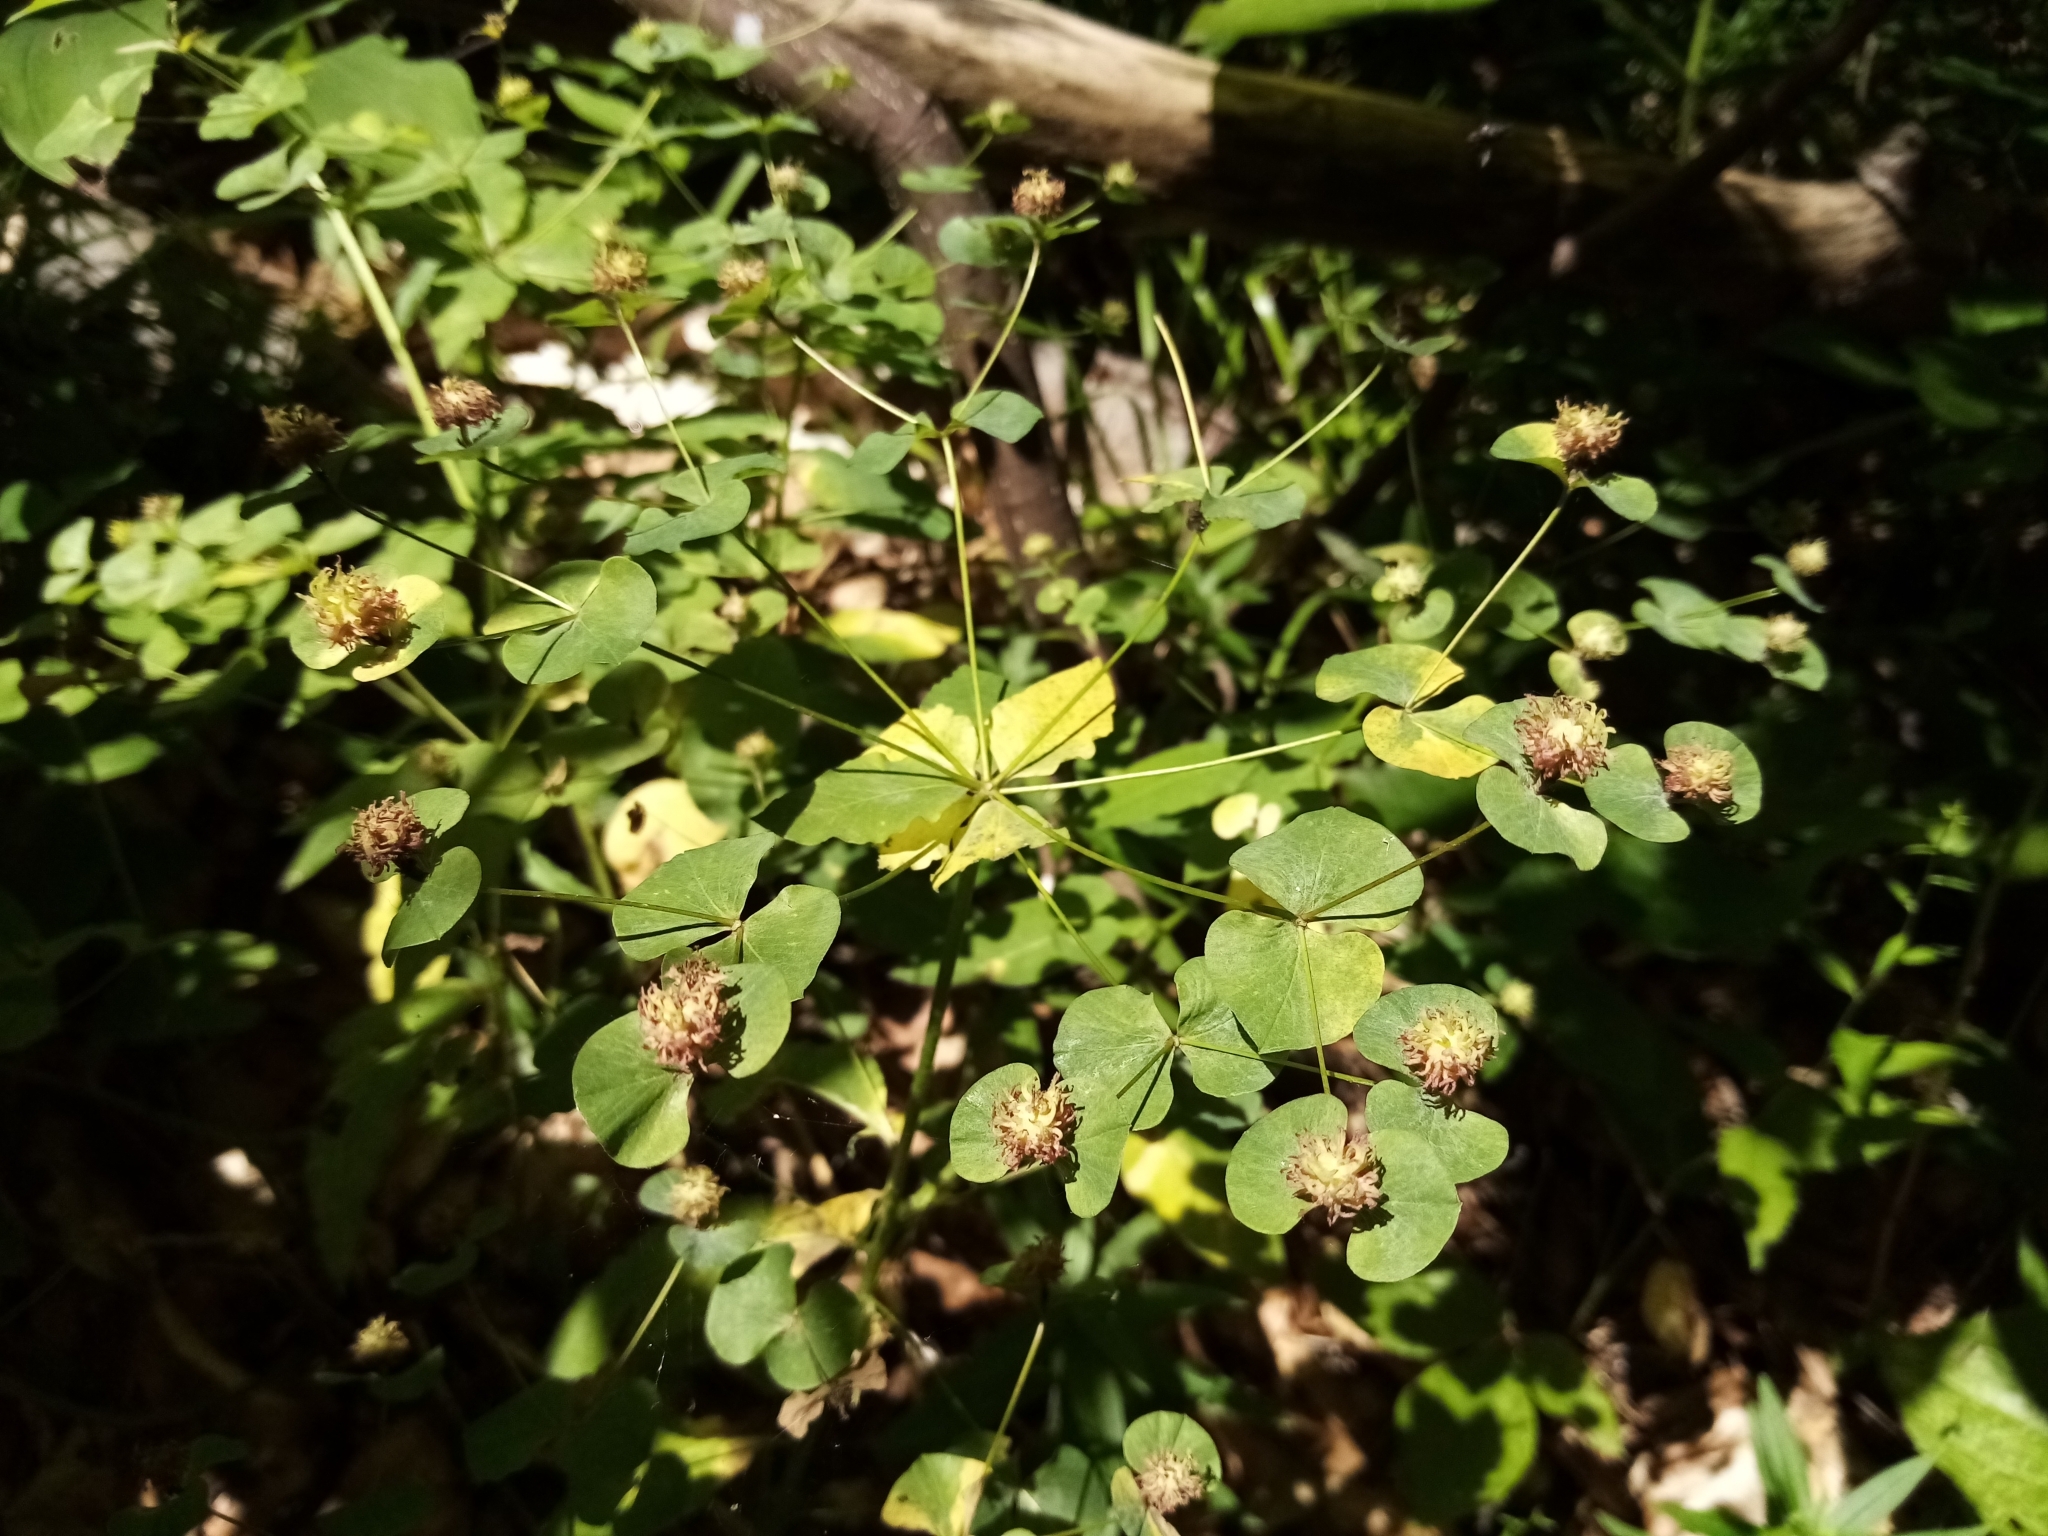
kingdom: Plantae
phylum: Tracheophyta
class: Magnoliopsida
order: Malpighiales
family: Euphorbiaceae
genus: Euphorbia
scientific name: Euphorbia squamosa
